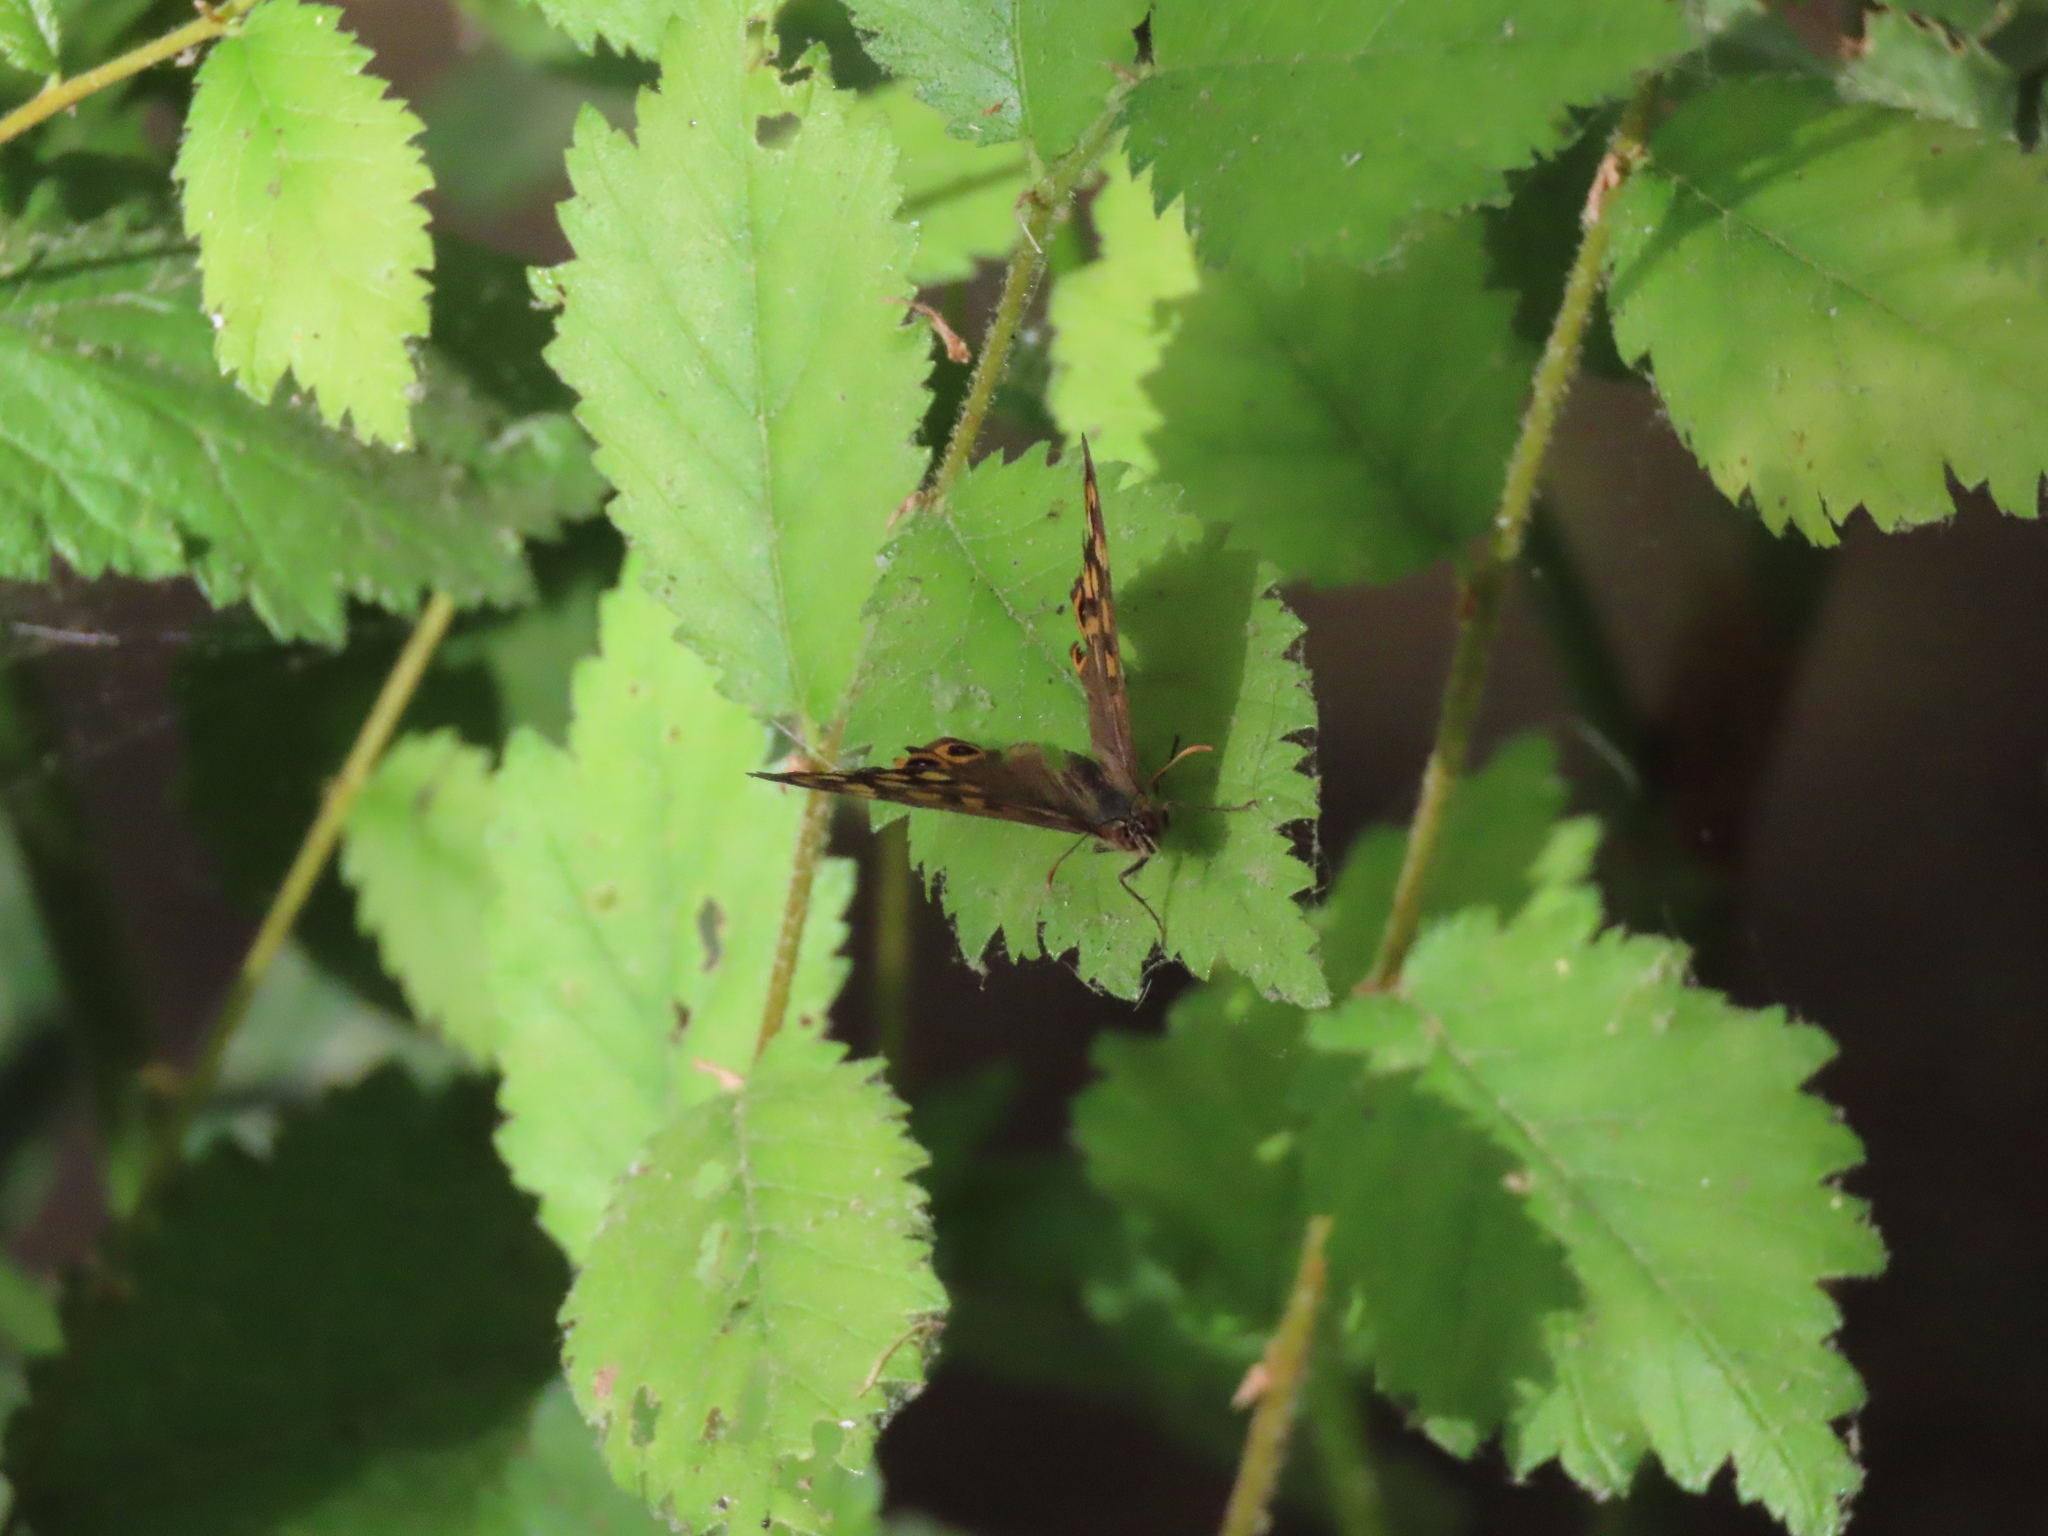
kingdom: Animalia
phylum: Arthropoda
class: Insecta
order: Lepidoptera
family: Nymphalidae
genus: Pararge
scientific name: Pararge aegeria
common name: Speckled wood
